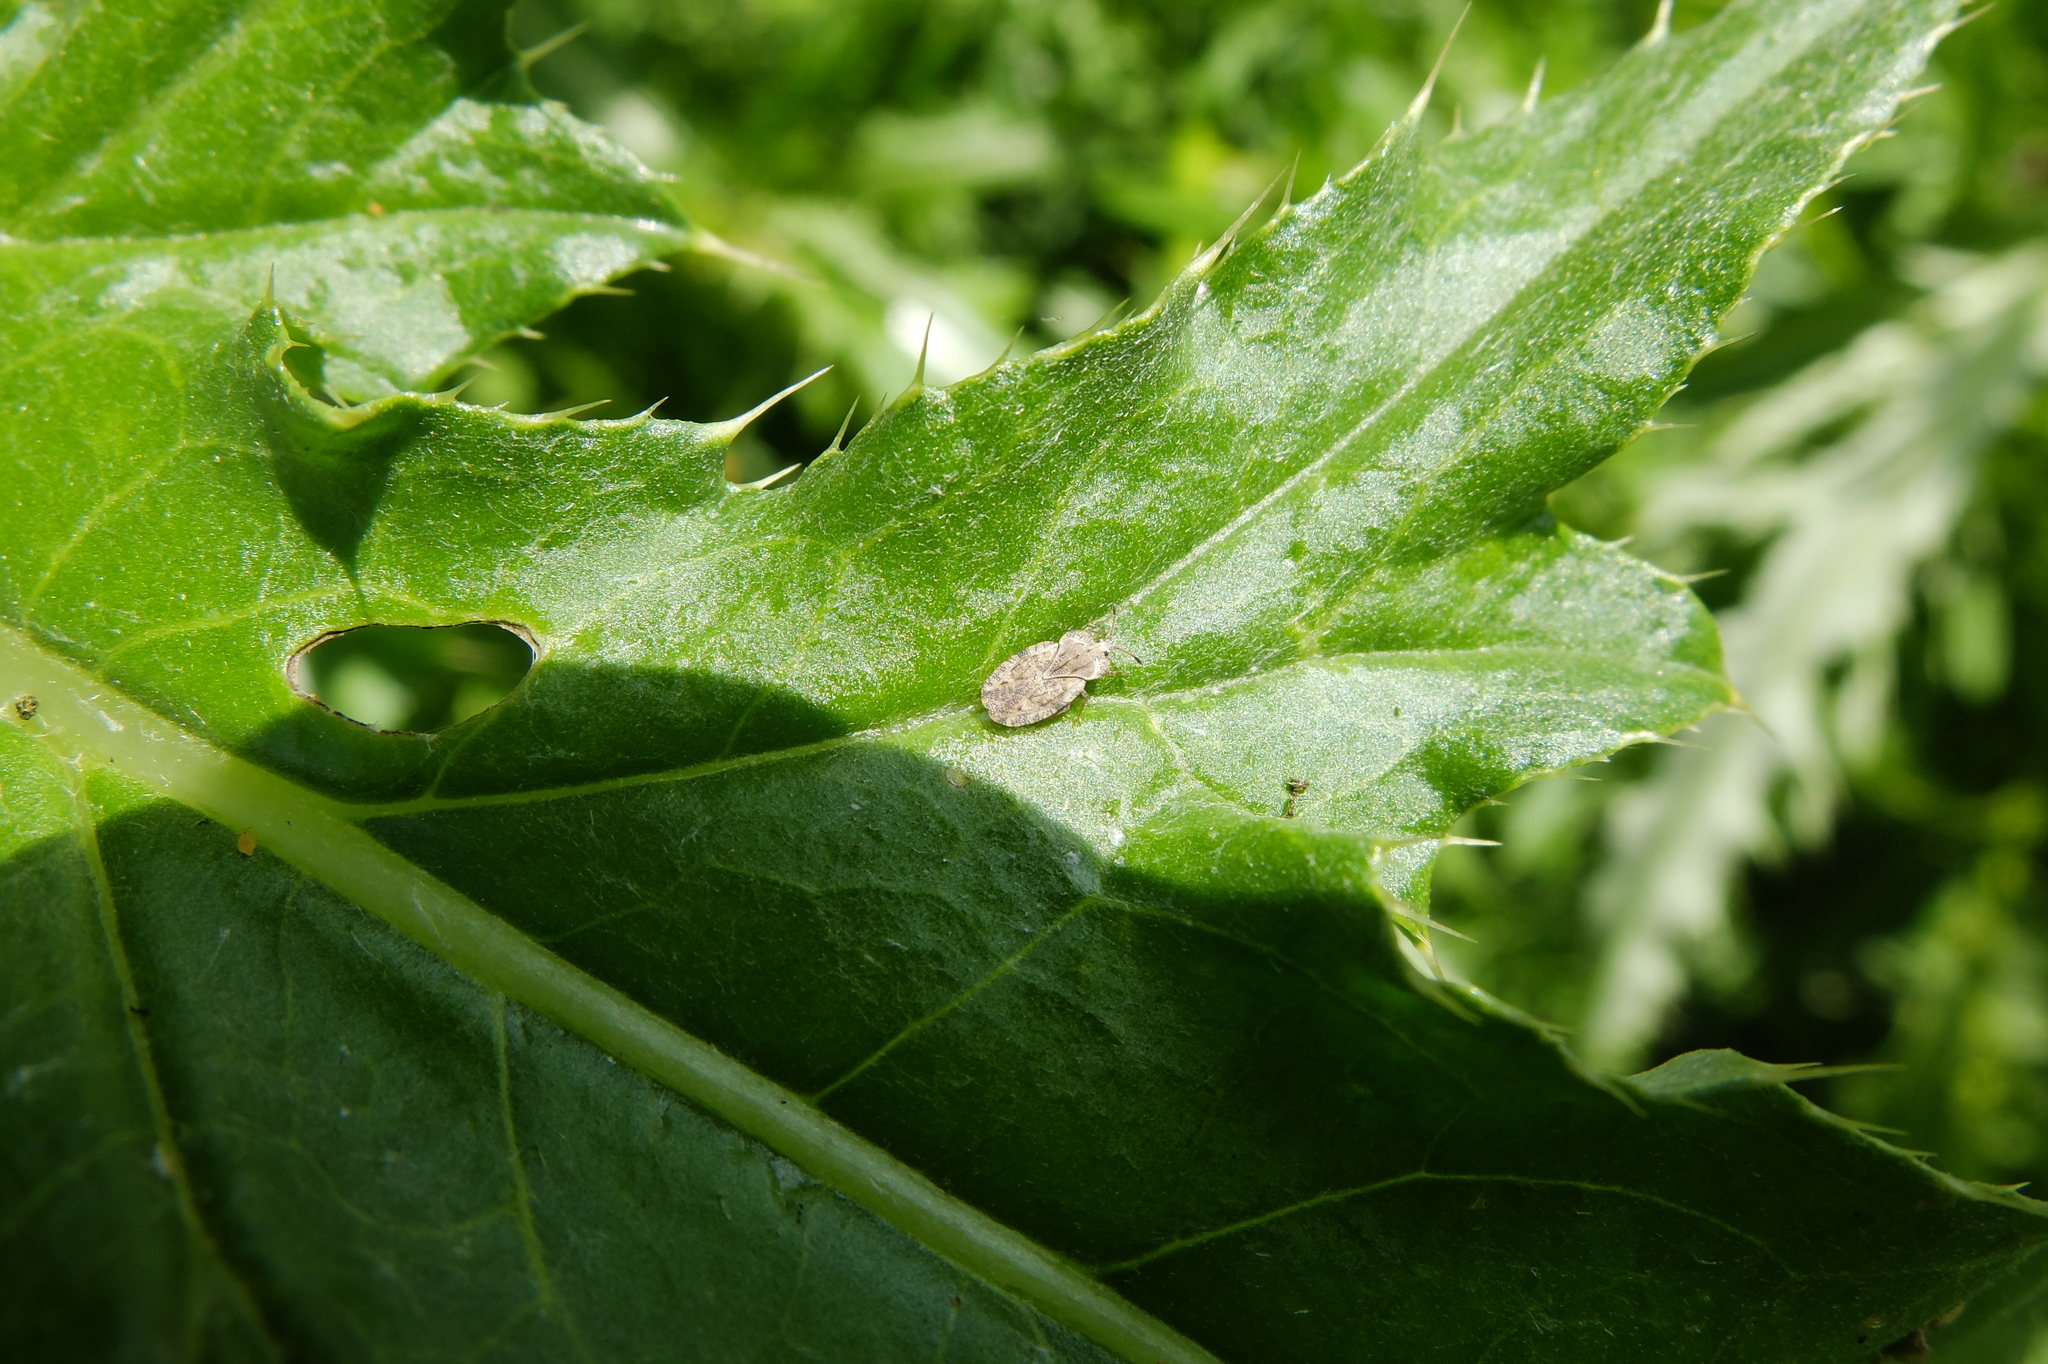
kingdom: Animalia
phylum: Arthropoda
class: Insecta
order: Hemiptera
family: Tingidae
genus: Tingis
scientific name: Tingis ampliata
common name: Creeping thistle lacebug
